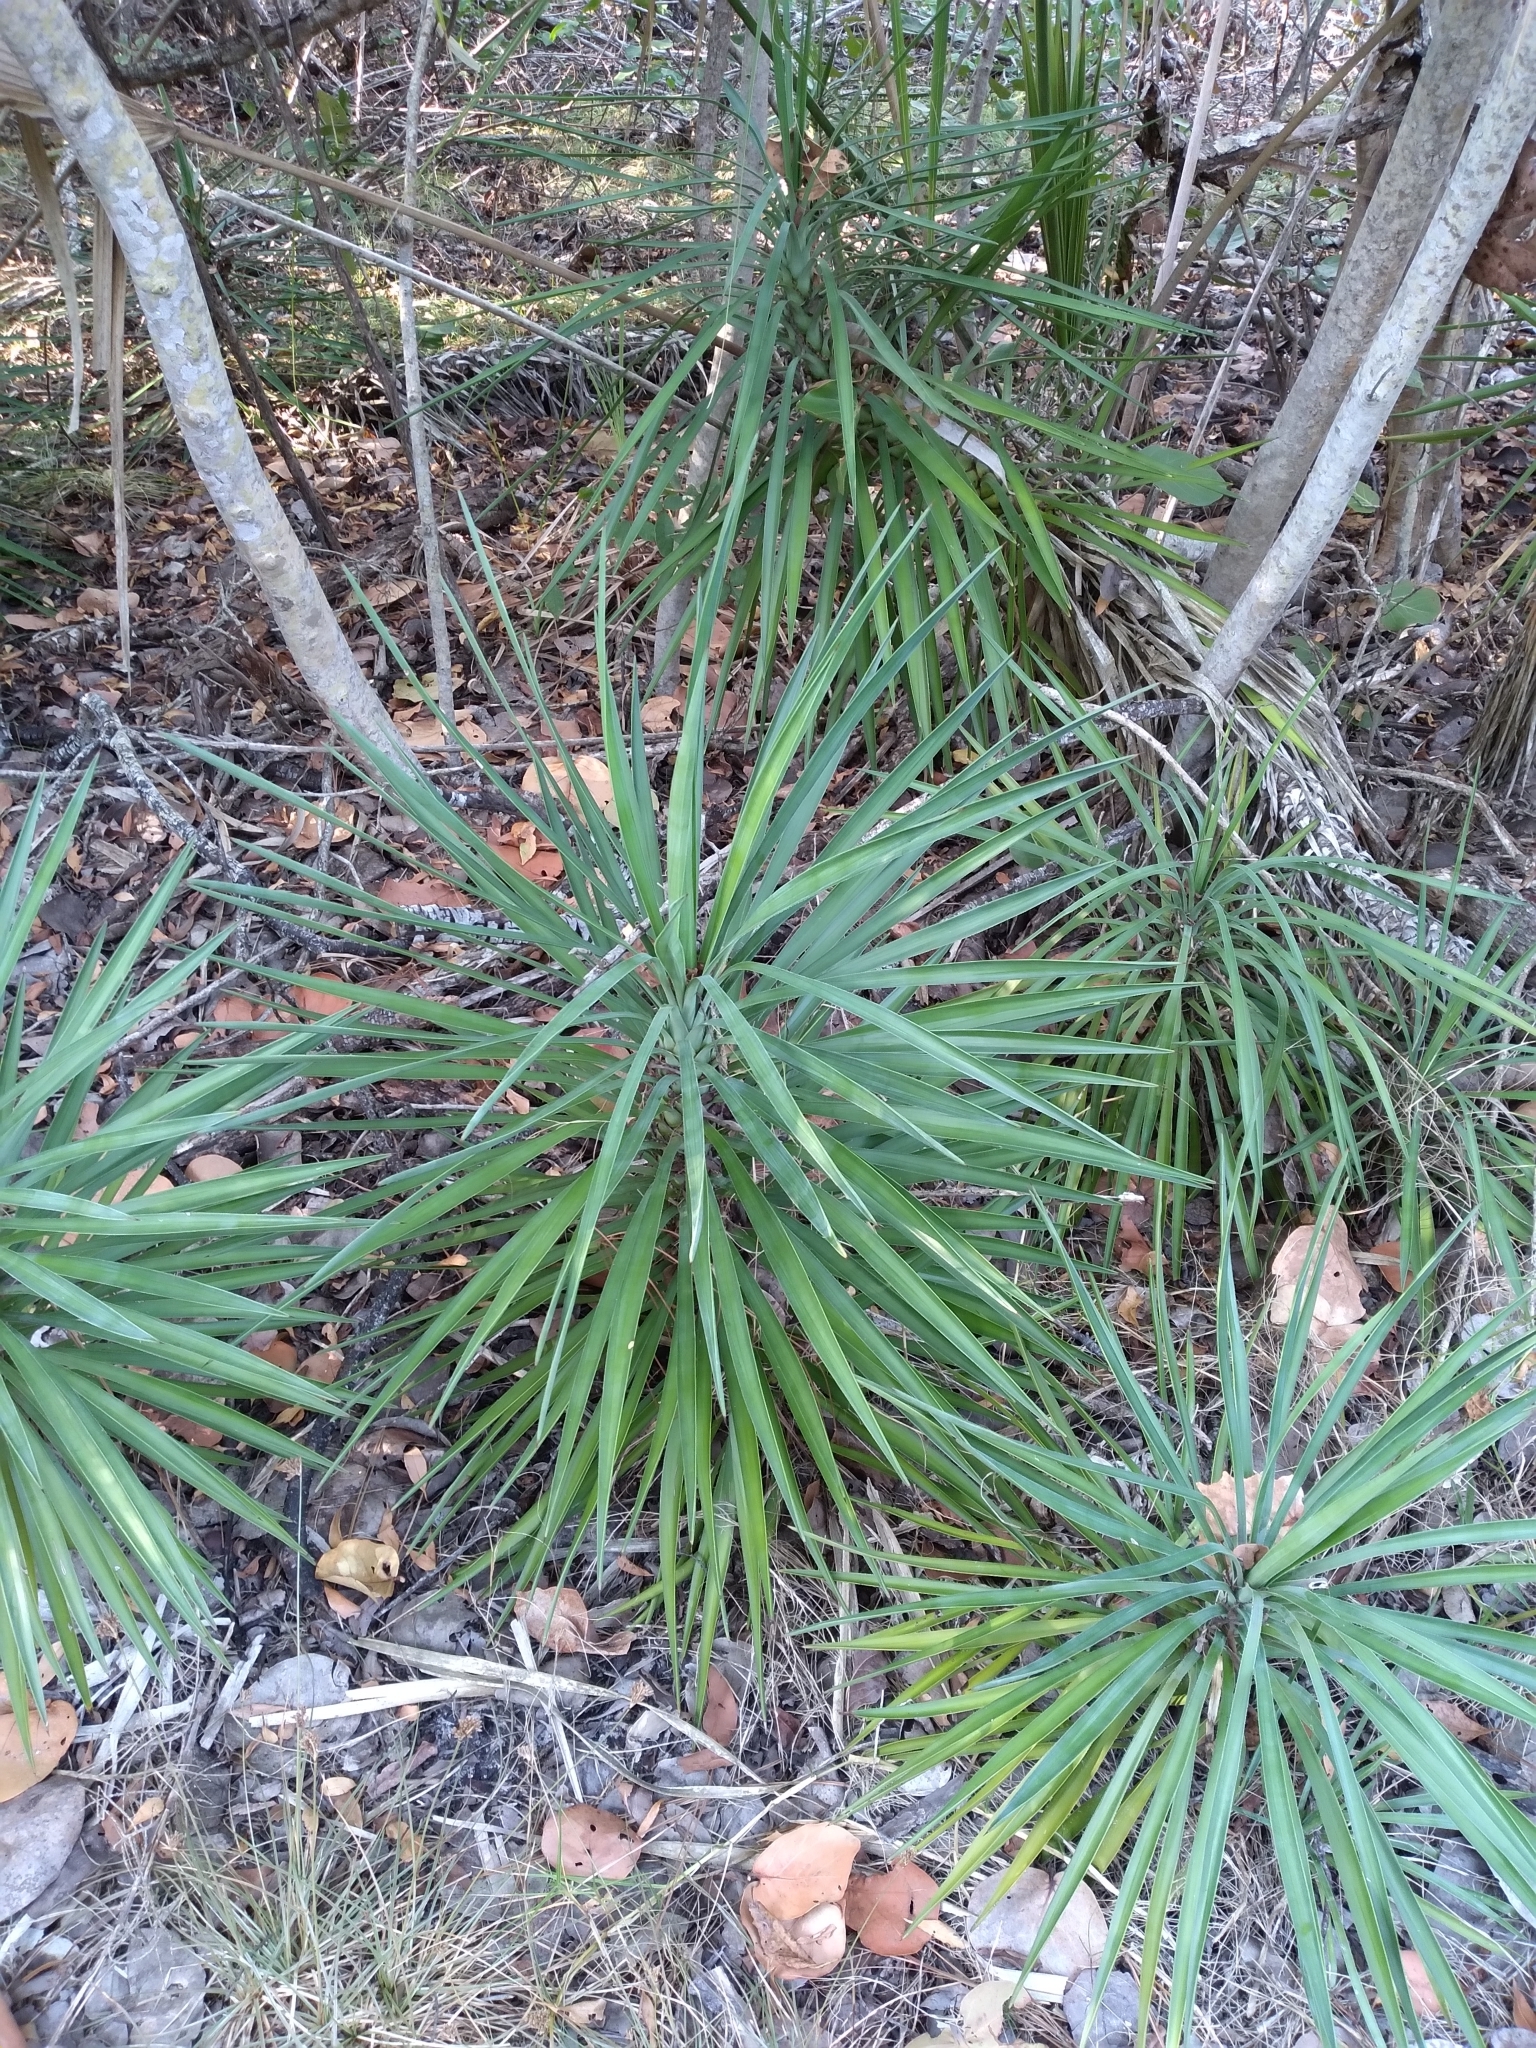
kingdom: Plantae
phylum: Tracheophyta
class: Liliopsida
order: Asparagales
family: Asparagaceae
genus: Yucca
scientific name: Yucca aloifolia
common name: Aloe yucca
